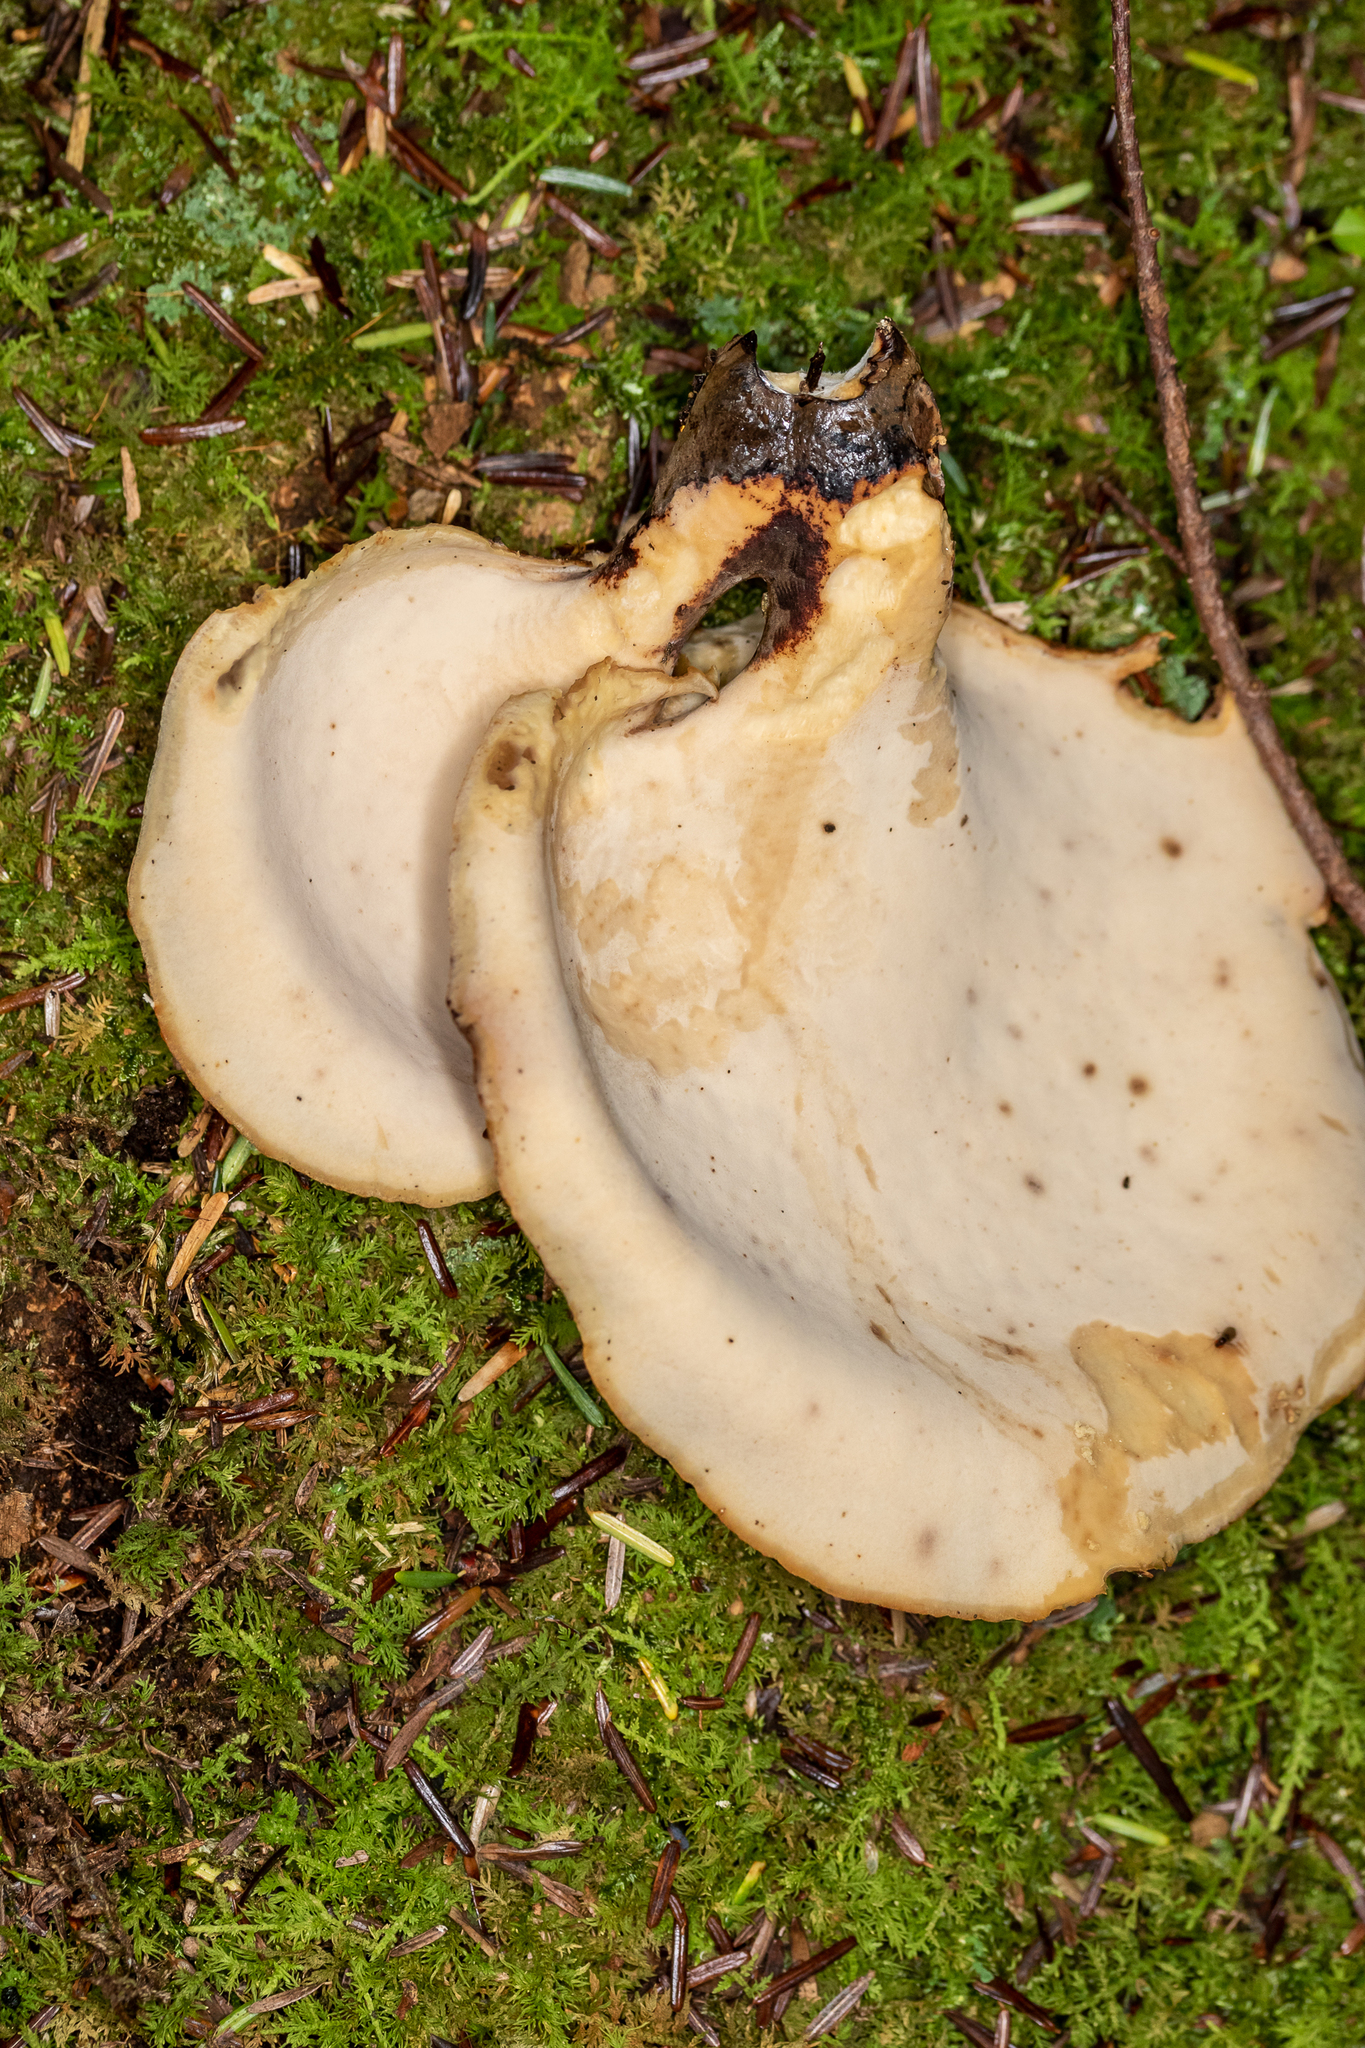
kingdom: Fungi
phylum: Basidiomycota
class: Agaricomycetes
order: Polyporales
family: Polyporaceae
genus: Picipes
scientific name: Picipes badius
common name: Bay polypore
